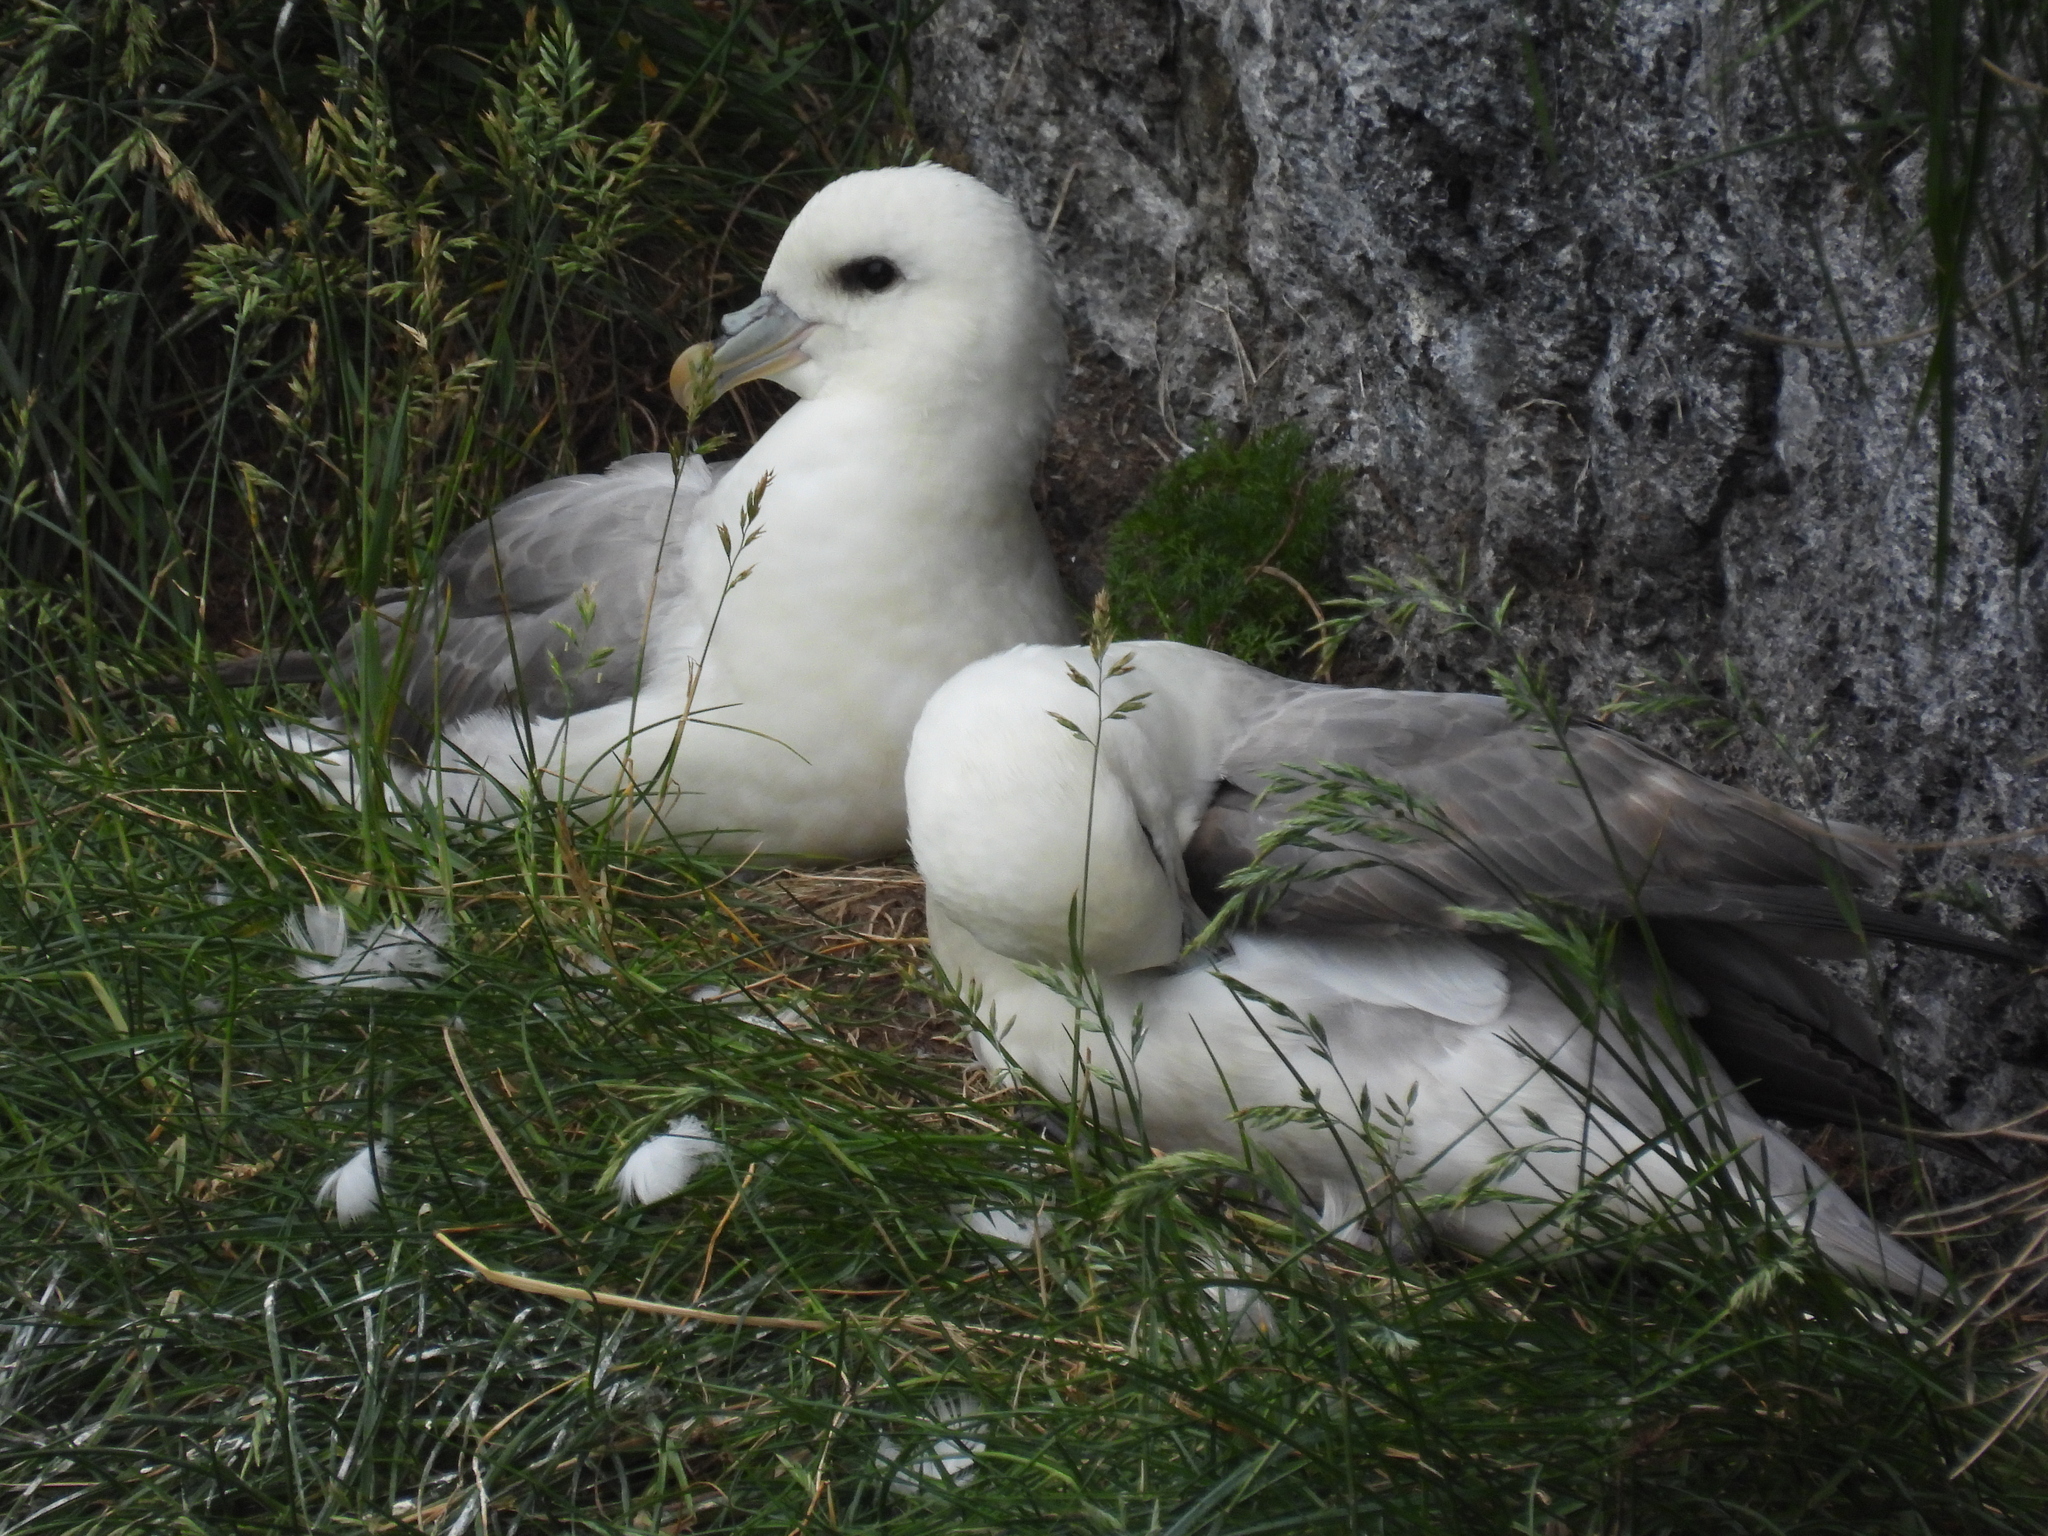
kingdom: Animalia
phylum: Chordata
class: Aves
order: Procellariiformes
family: Procellariidae
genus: Fulmarus
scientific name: Fulmarus glacialis
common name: Northern fulmar
